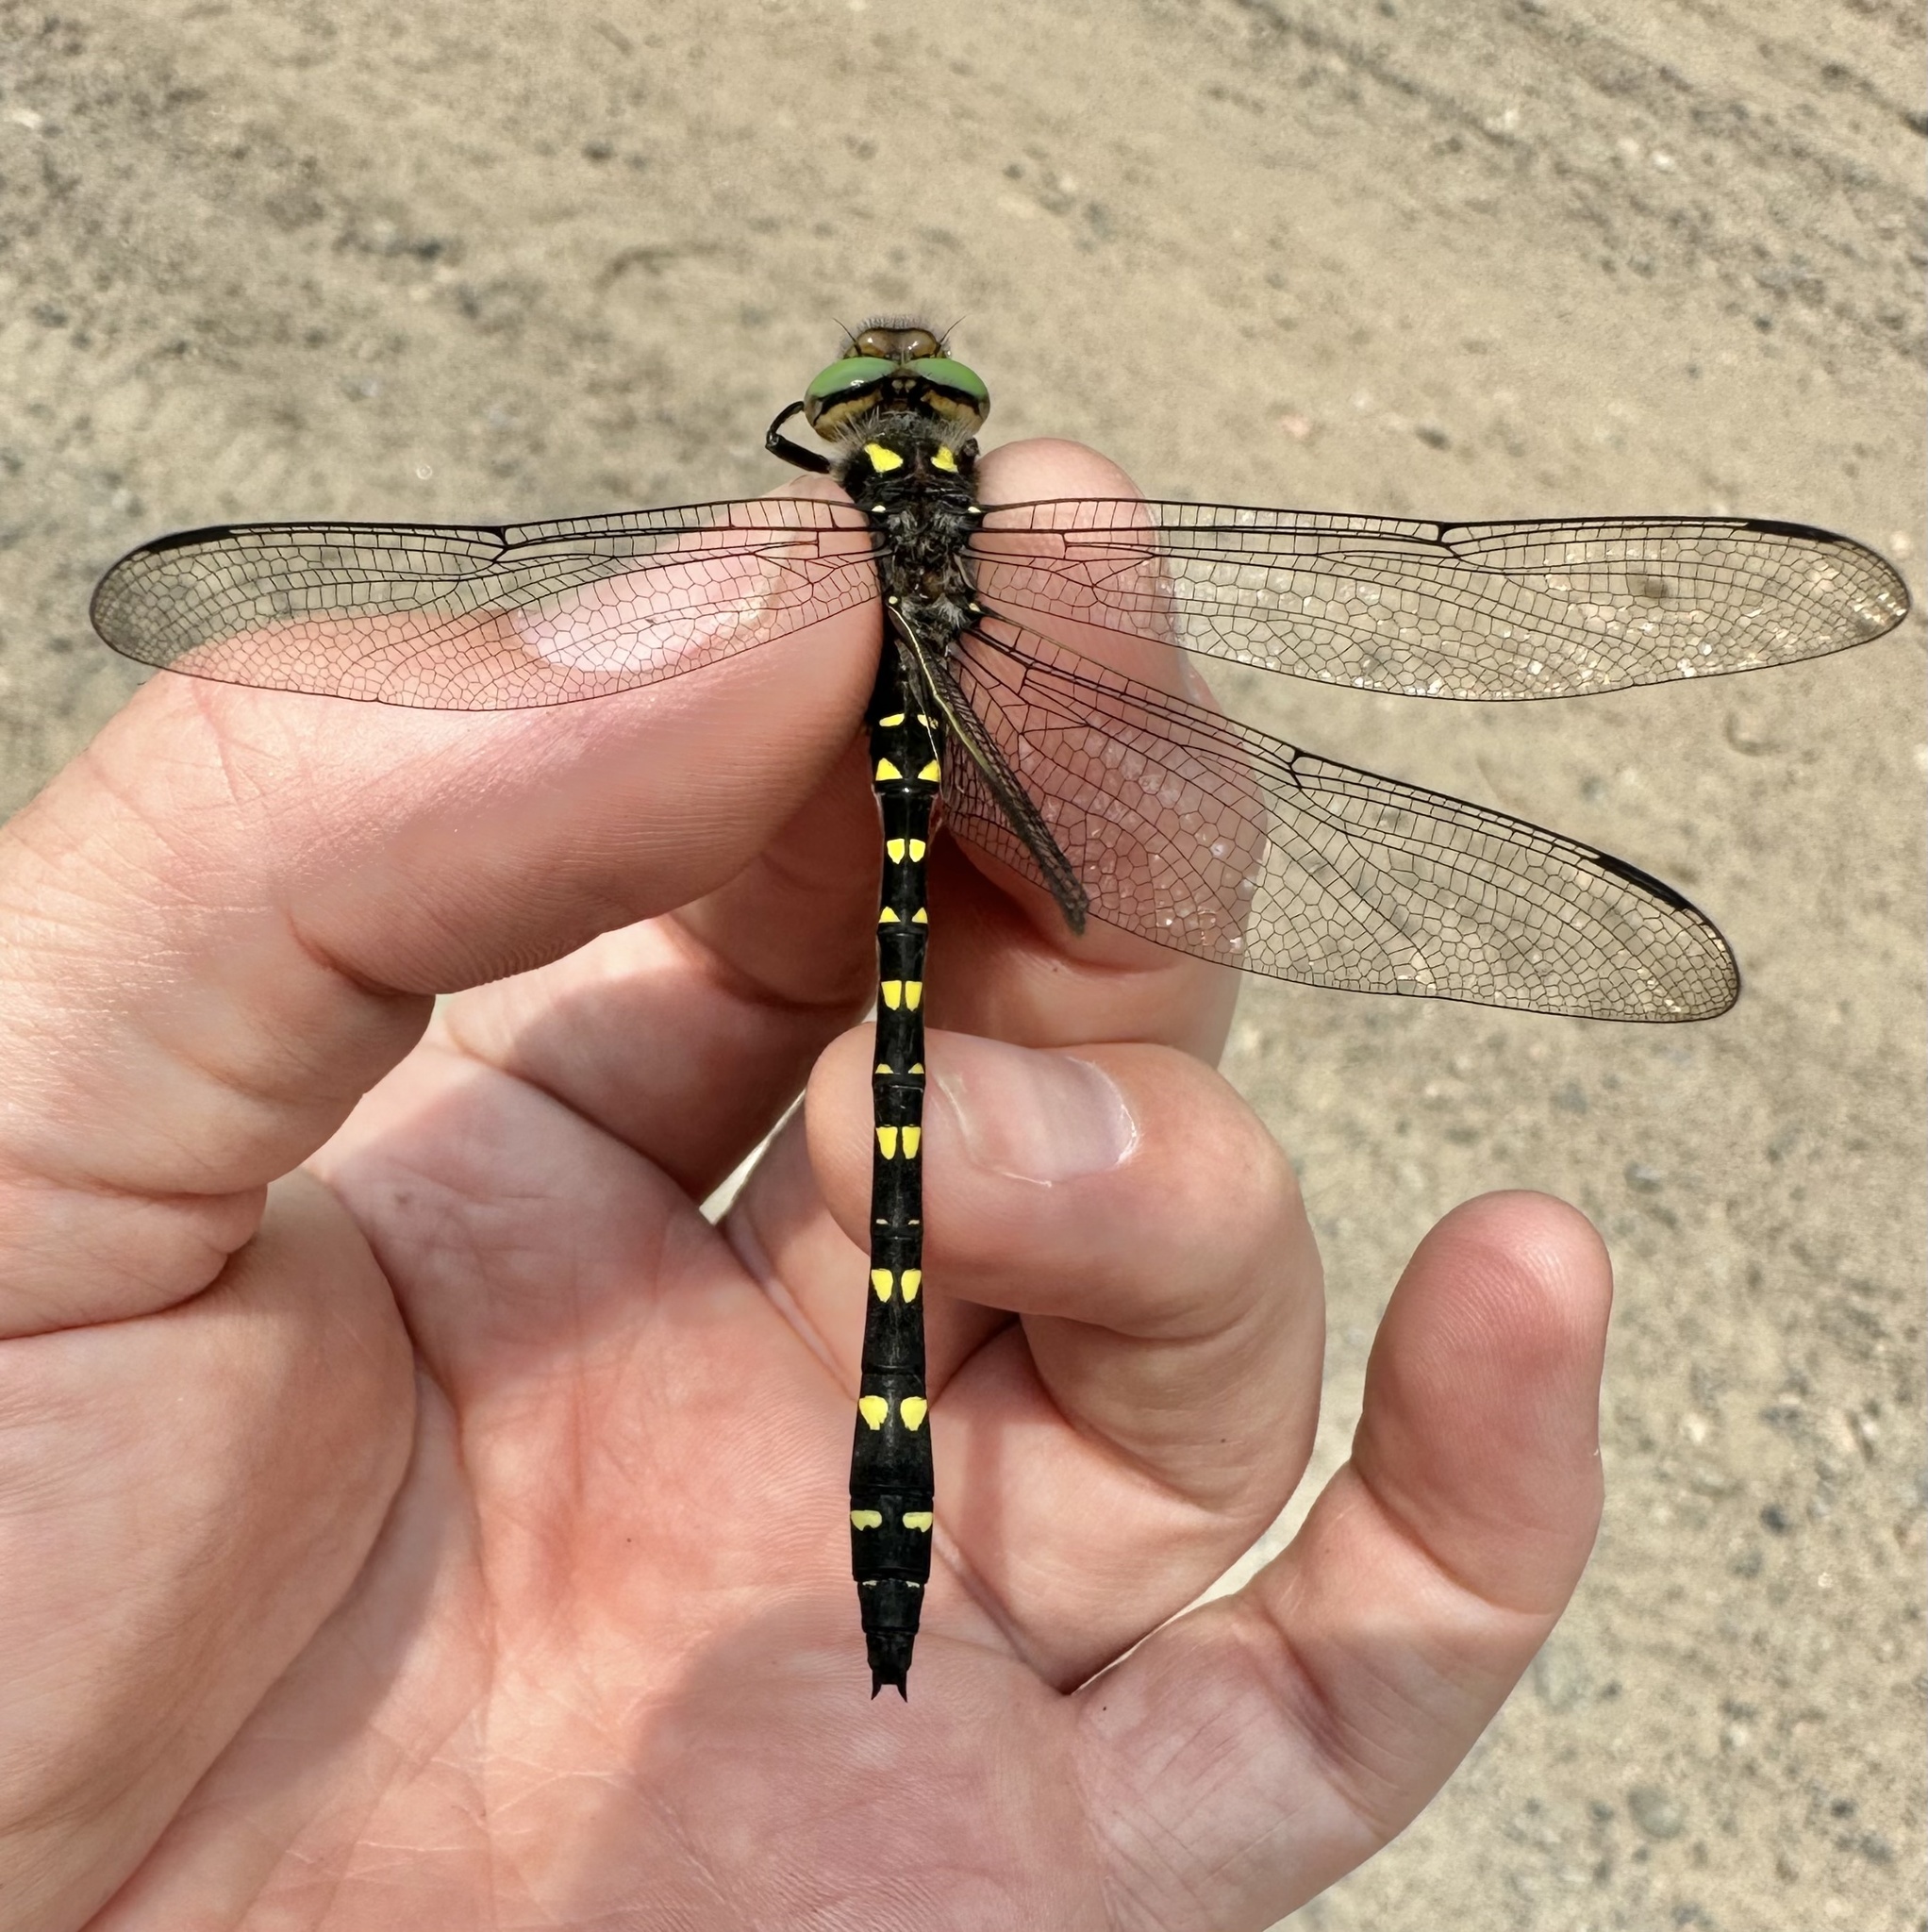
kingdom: Animalia
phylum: Arthropoda
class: Insecta
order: Odonata
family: Cordulegastridae
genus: Cordulegaster
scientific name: Cordulegaster maculata
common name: Twin-spotted spiketail
